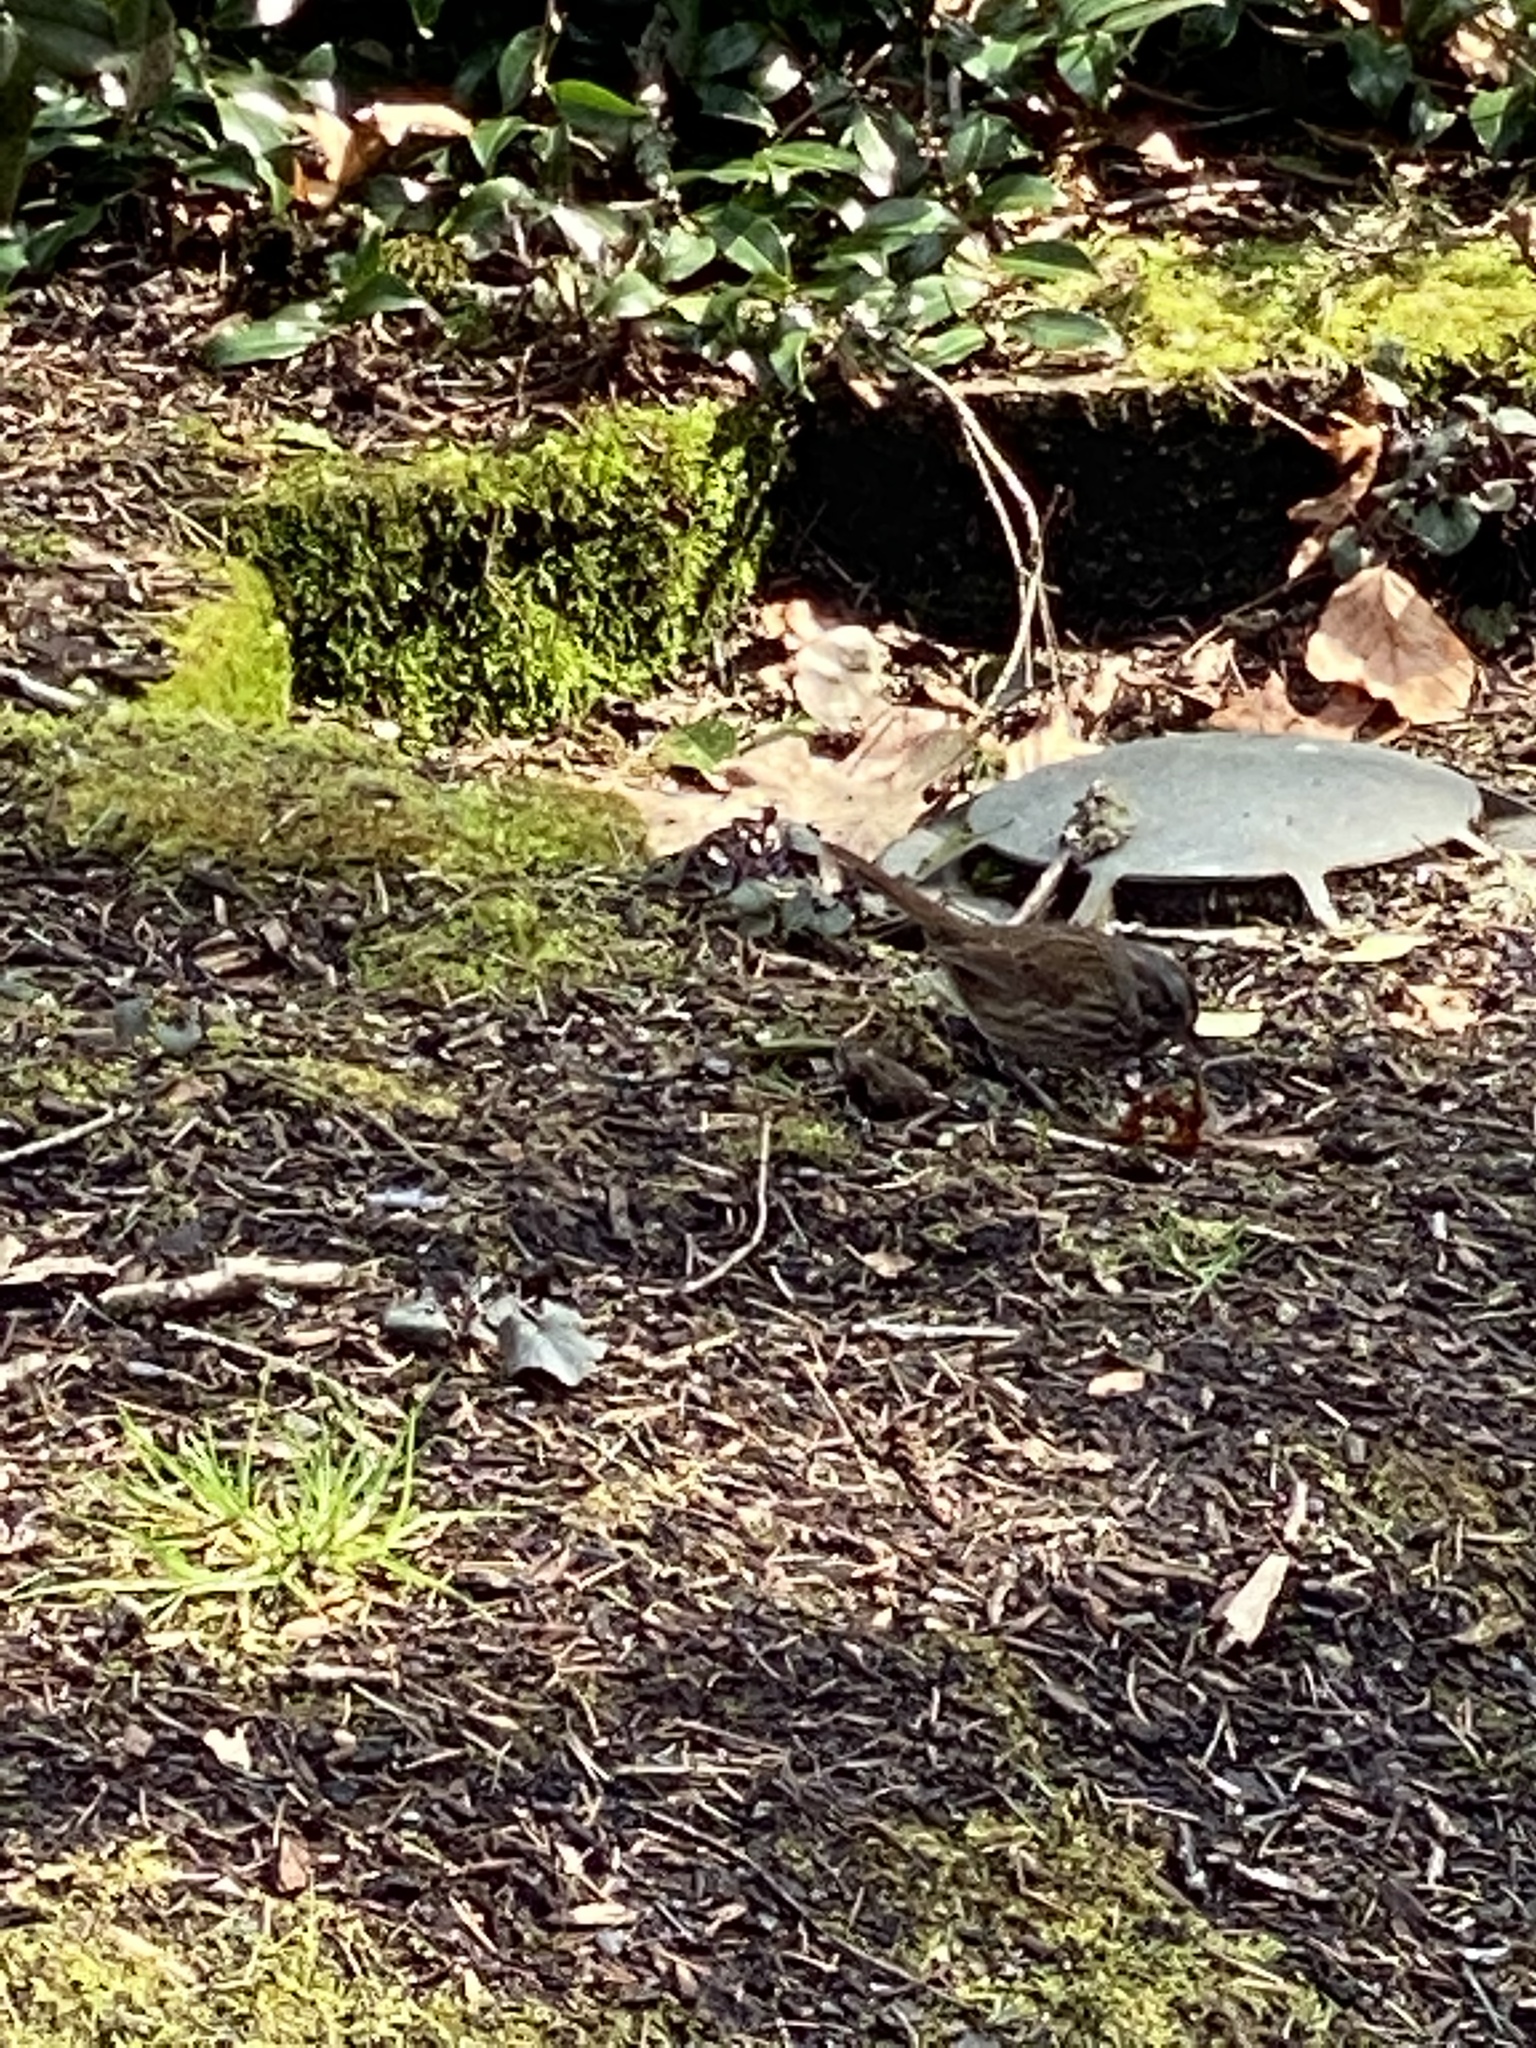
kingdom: Animalia
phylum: Chordata
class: Aves
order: Passeriformes
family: Passerellidae
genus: Melospiza
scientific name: Melospiza melodia
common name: Song sparrow
